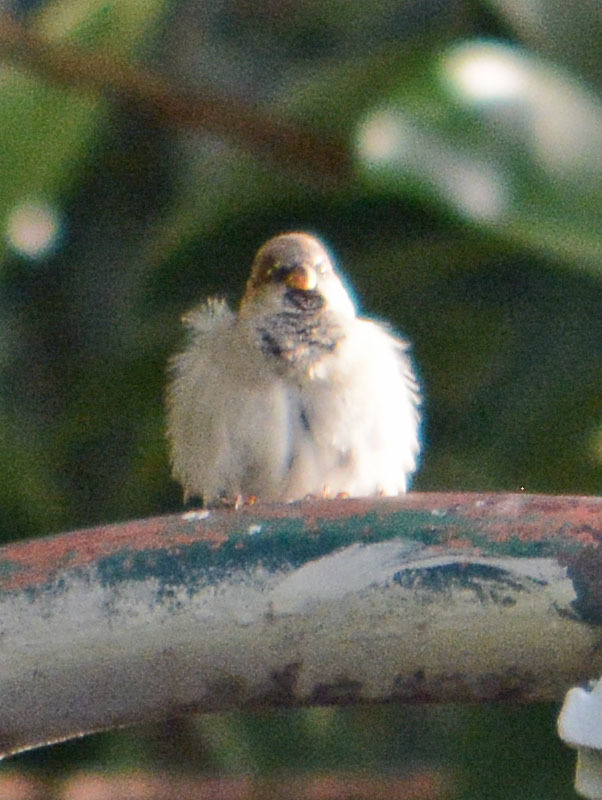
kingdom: Animalia
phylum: Chordata
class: Aves
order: Passeriformes
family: Passeridae
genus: Passer
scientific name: Passer domesticus
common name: House sparrow
